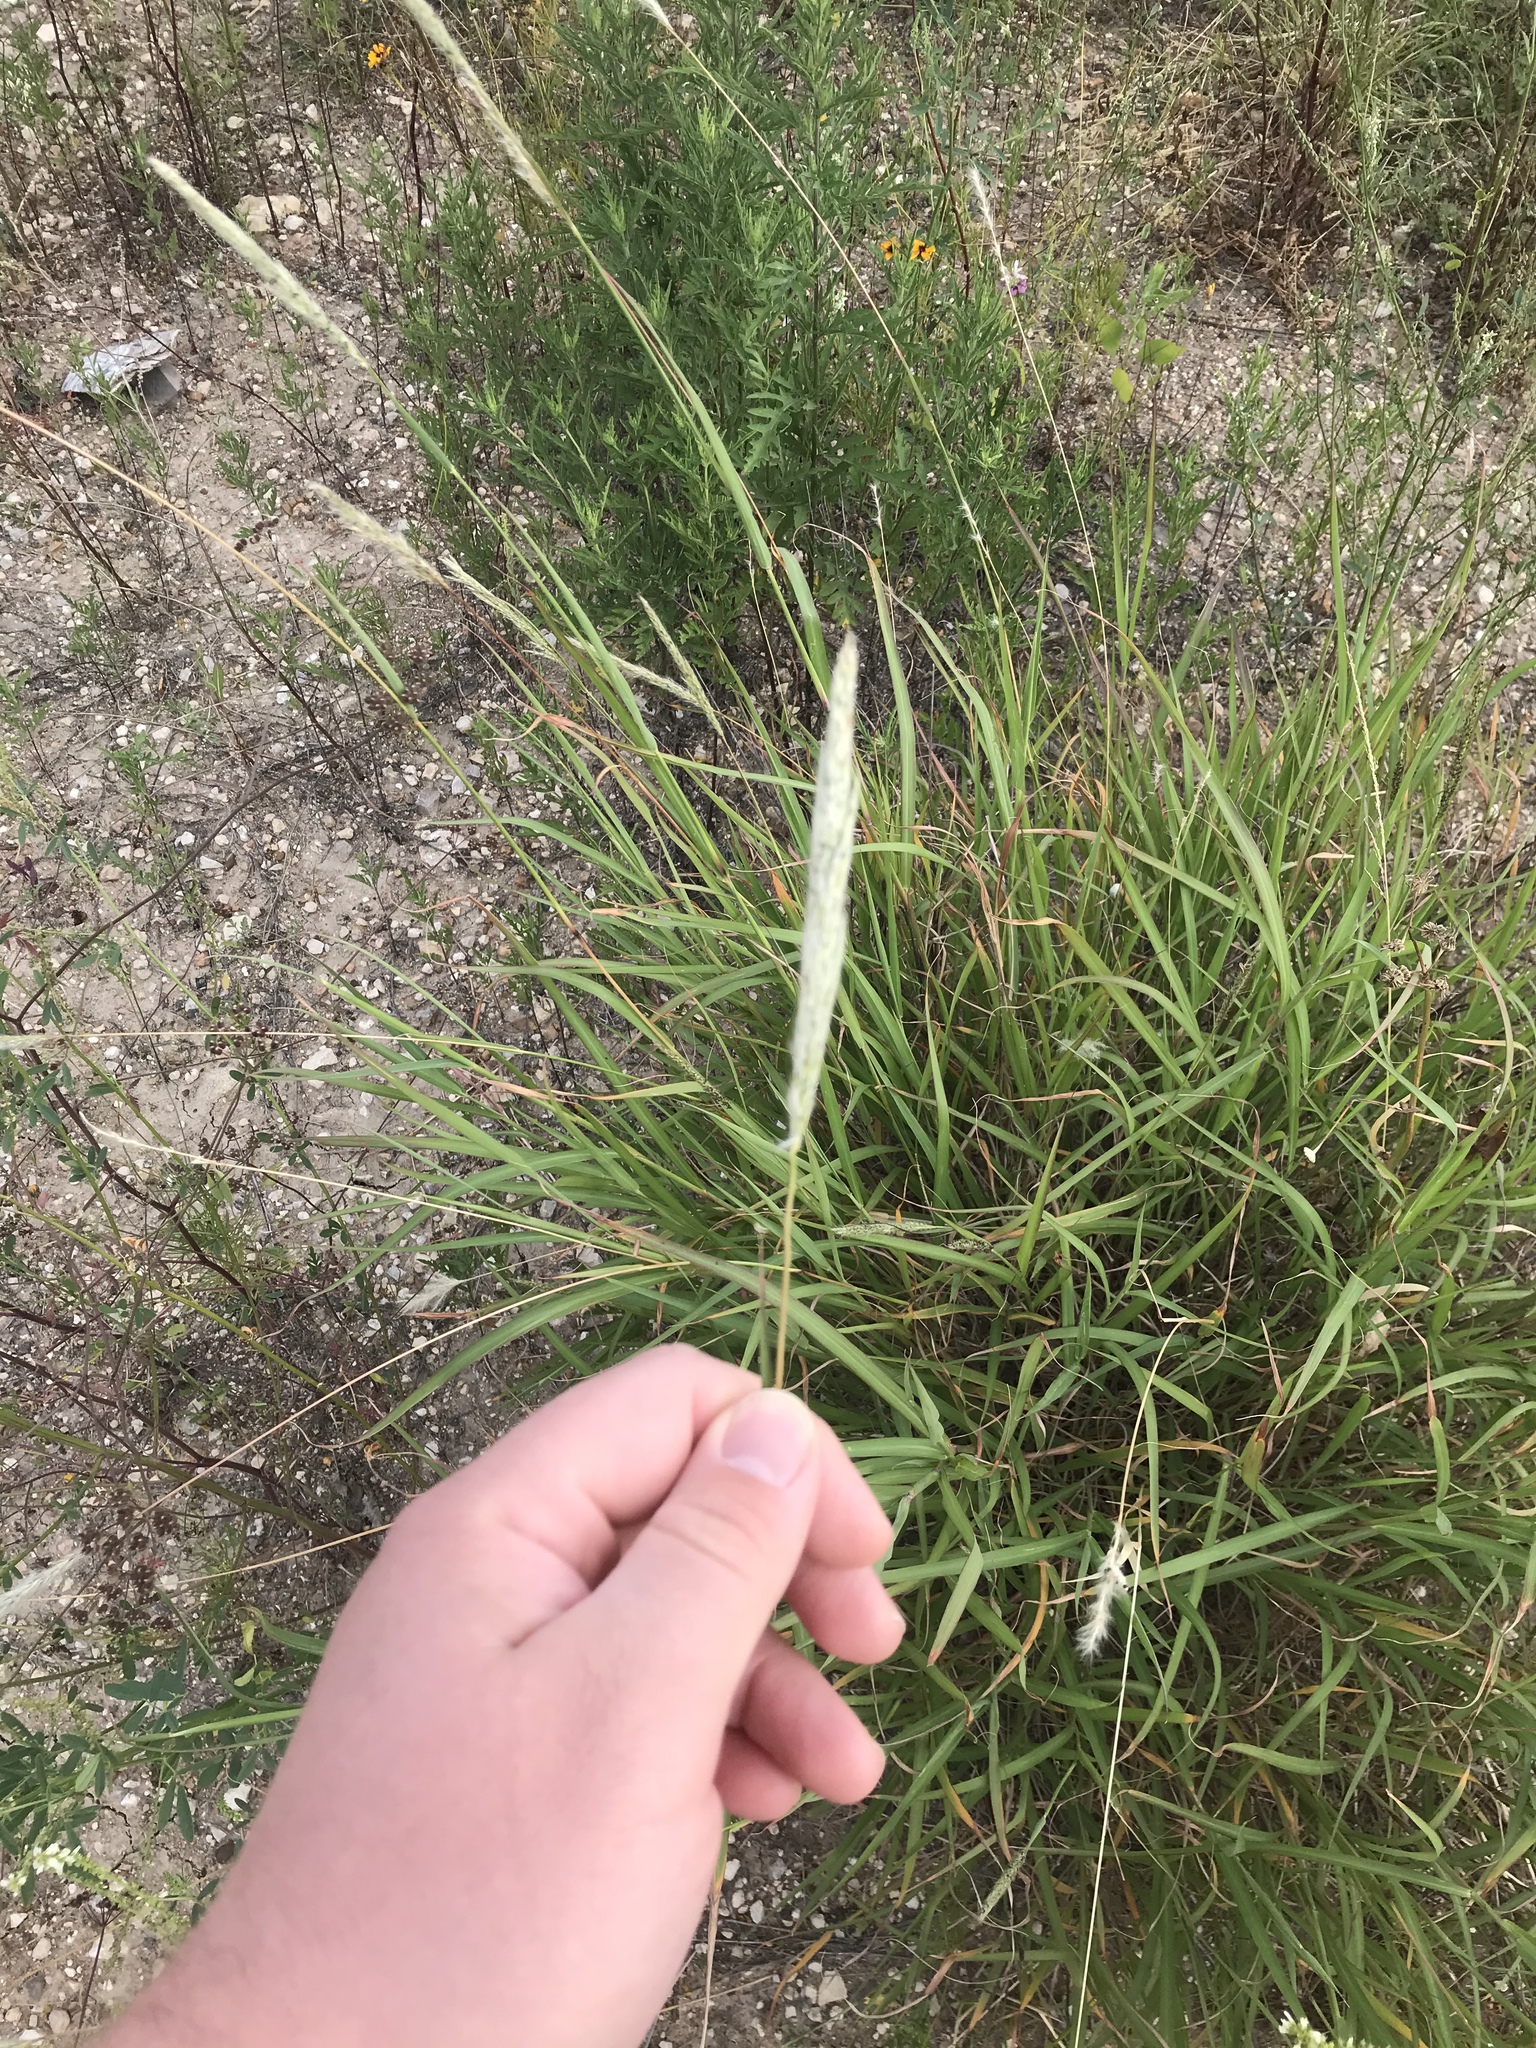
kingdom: Plantae
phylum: Tracheophyta
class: Liliopsida
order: Poales
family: Poaceae
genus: Bothriochloa
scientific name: Bothriochloa torreyana
